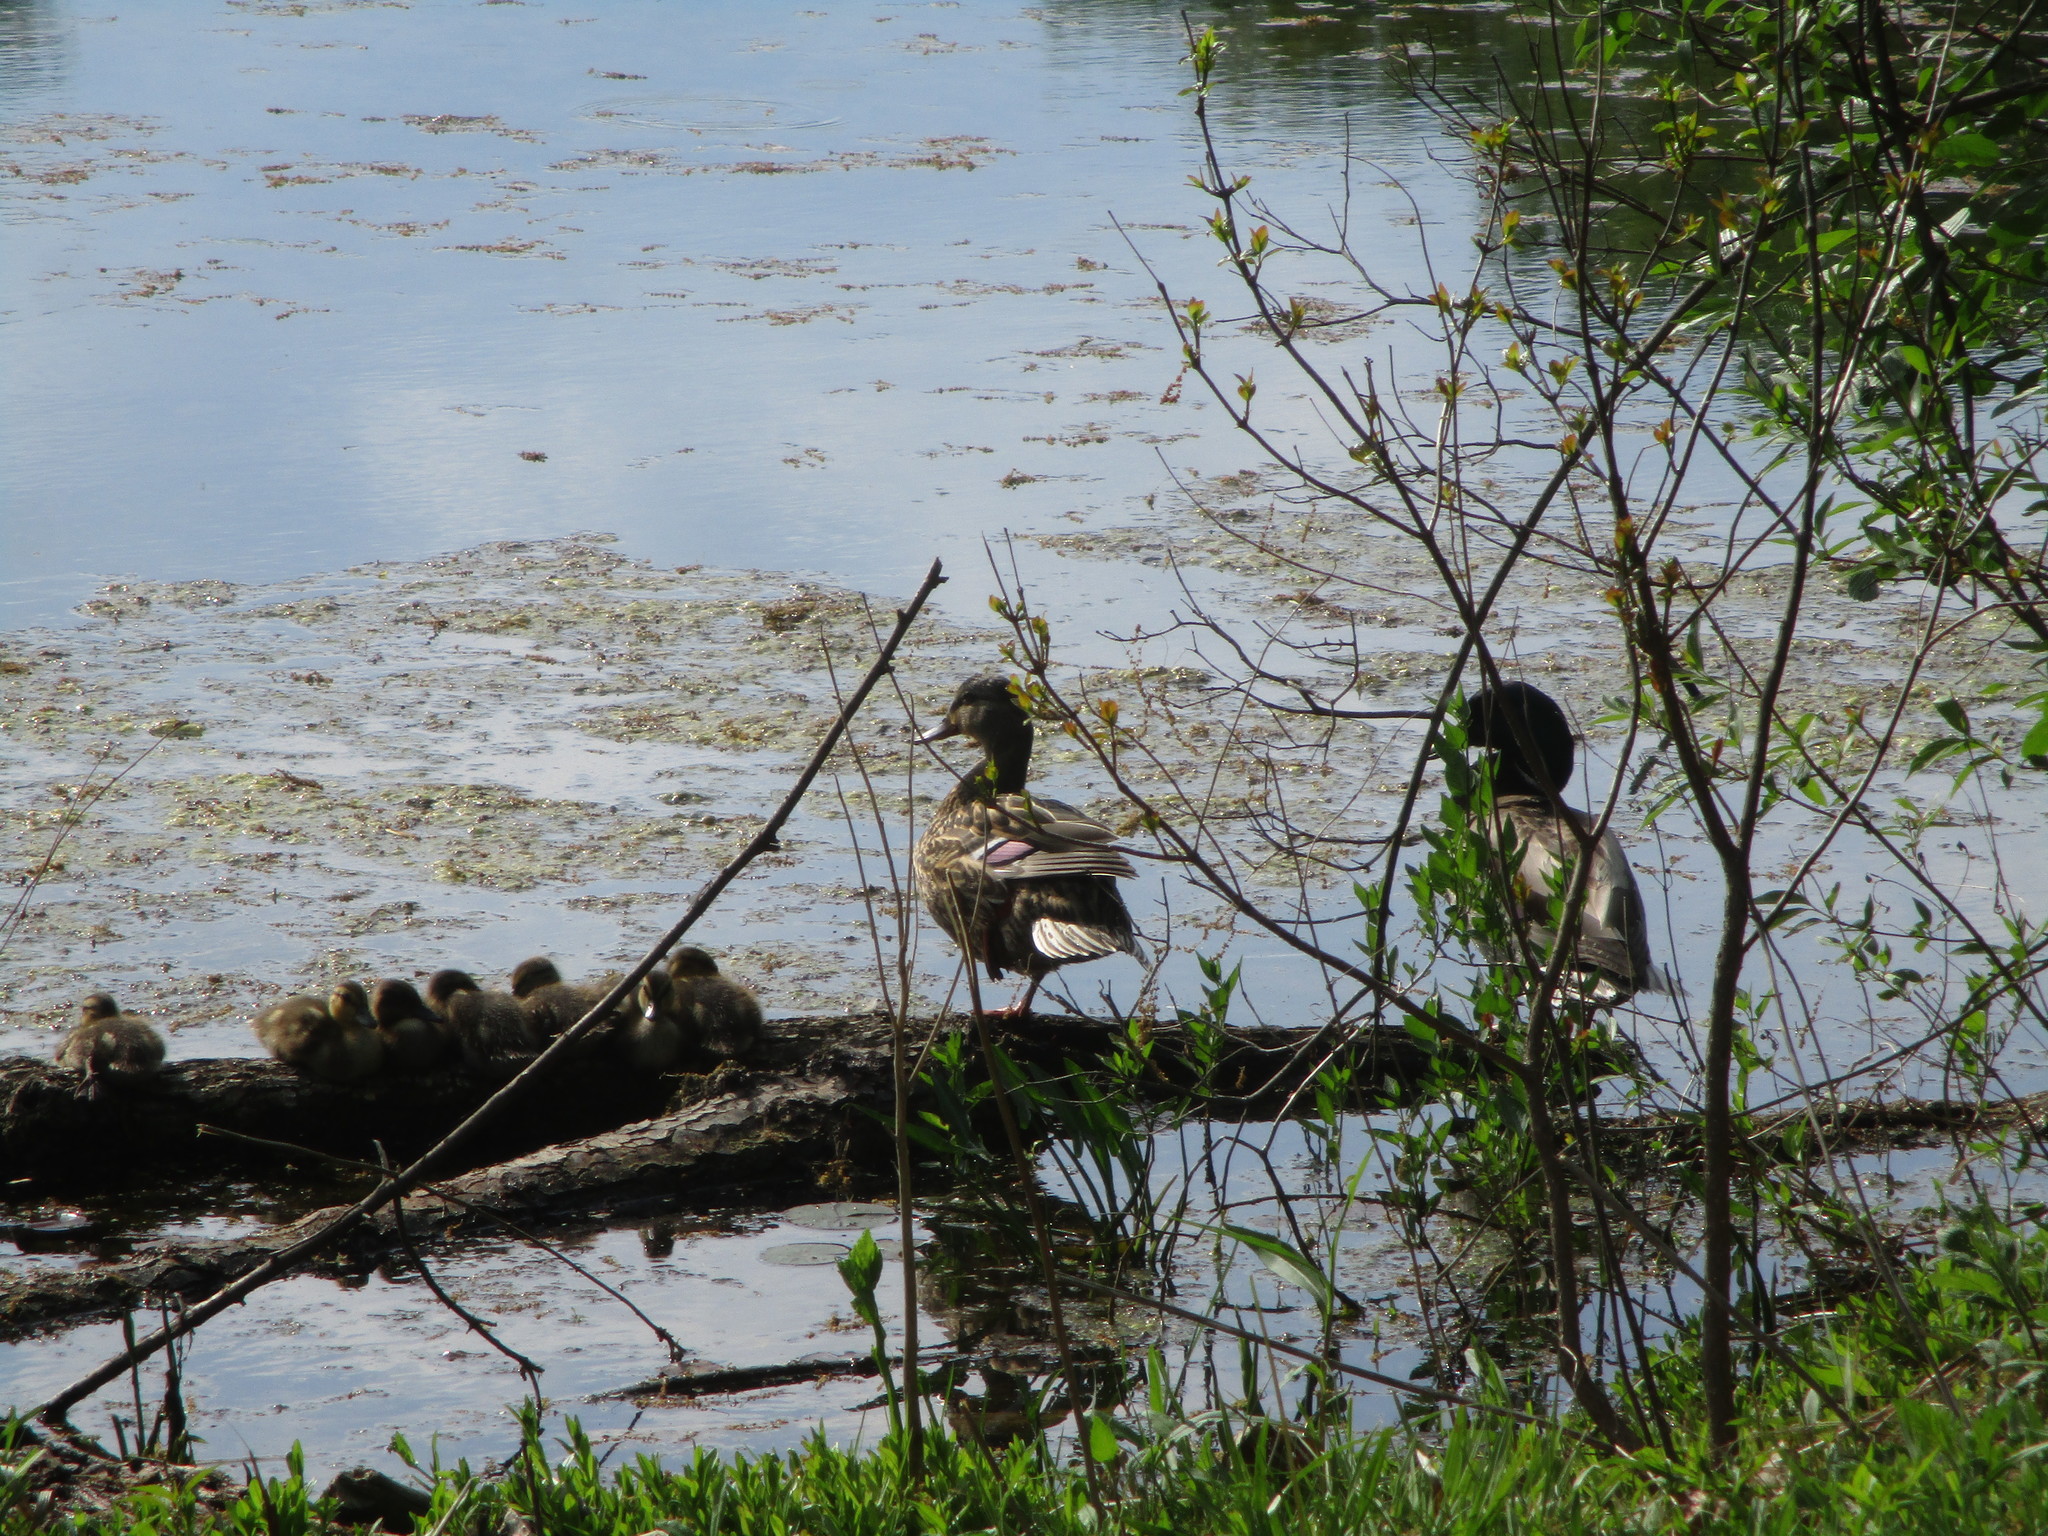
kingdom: Animalia
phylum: Chordata
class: Aves
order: Anseriformes
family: Anatidae
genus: Anas
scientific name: Anas platyrhynchos
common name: Mallard
